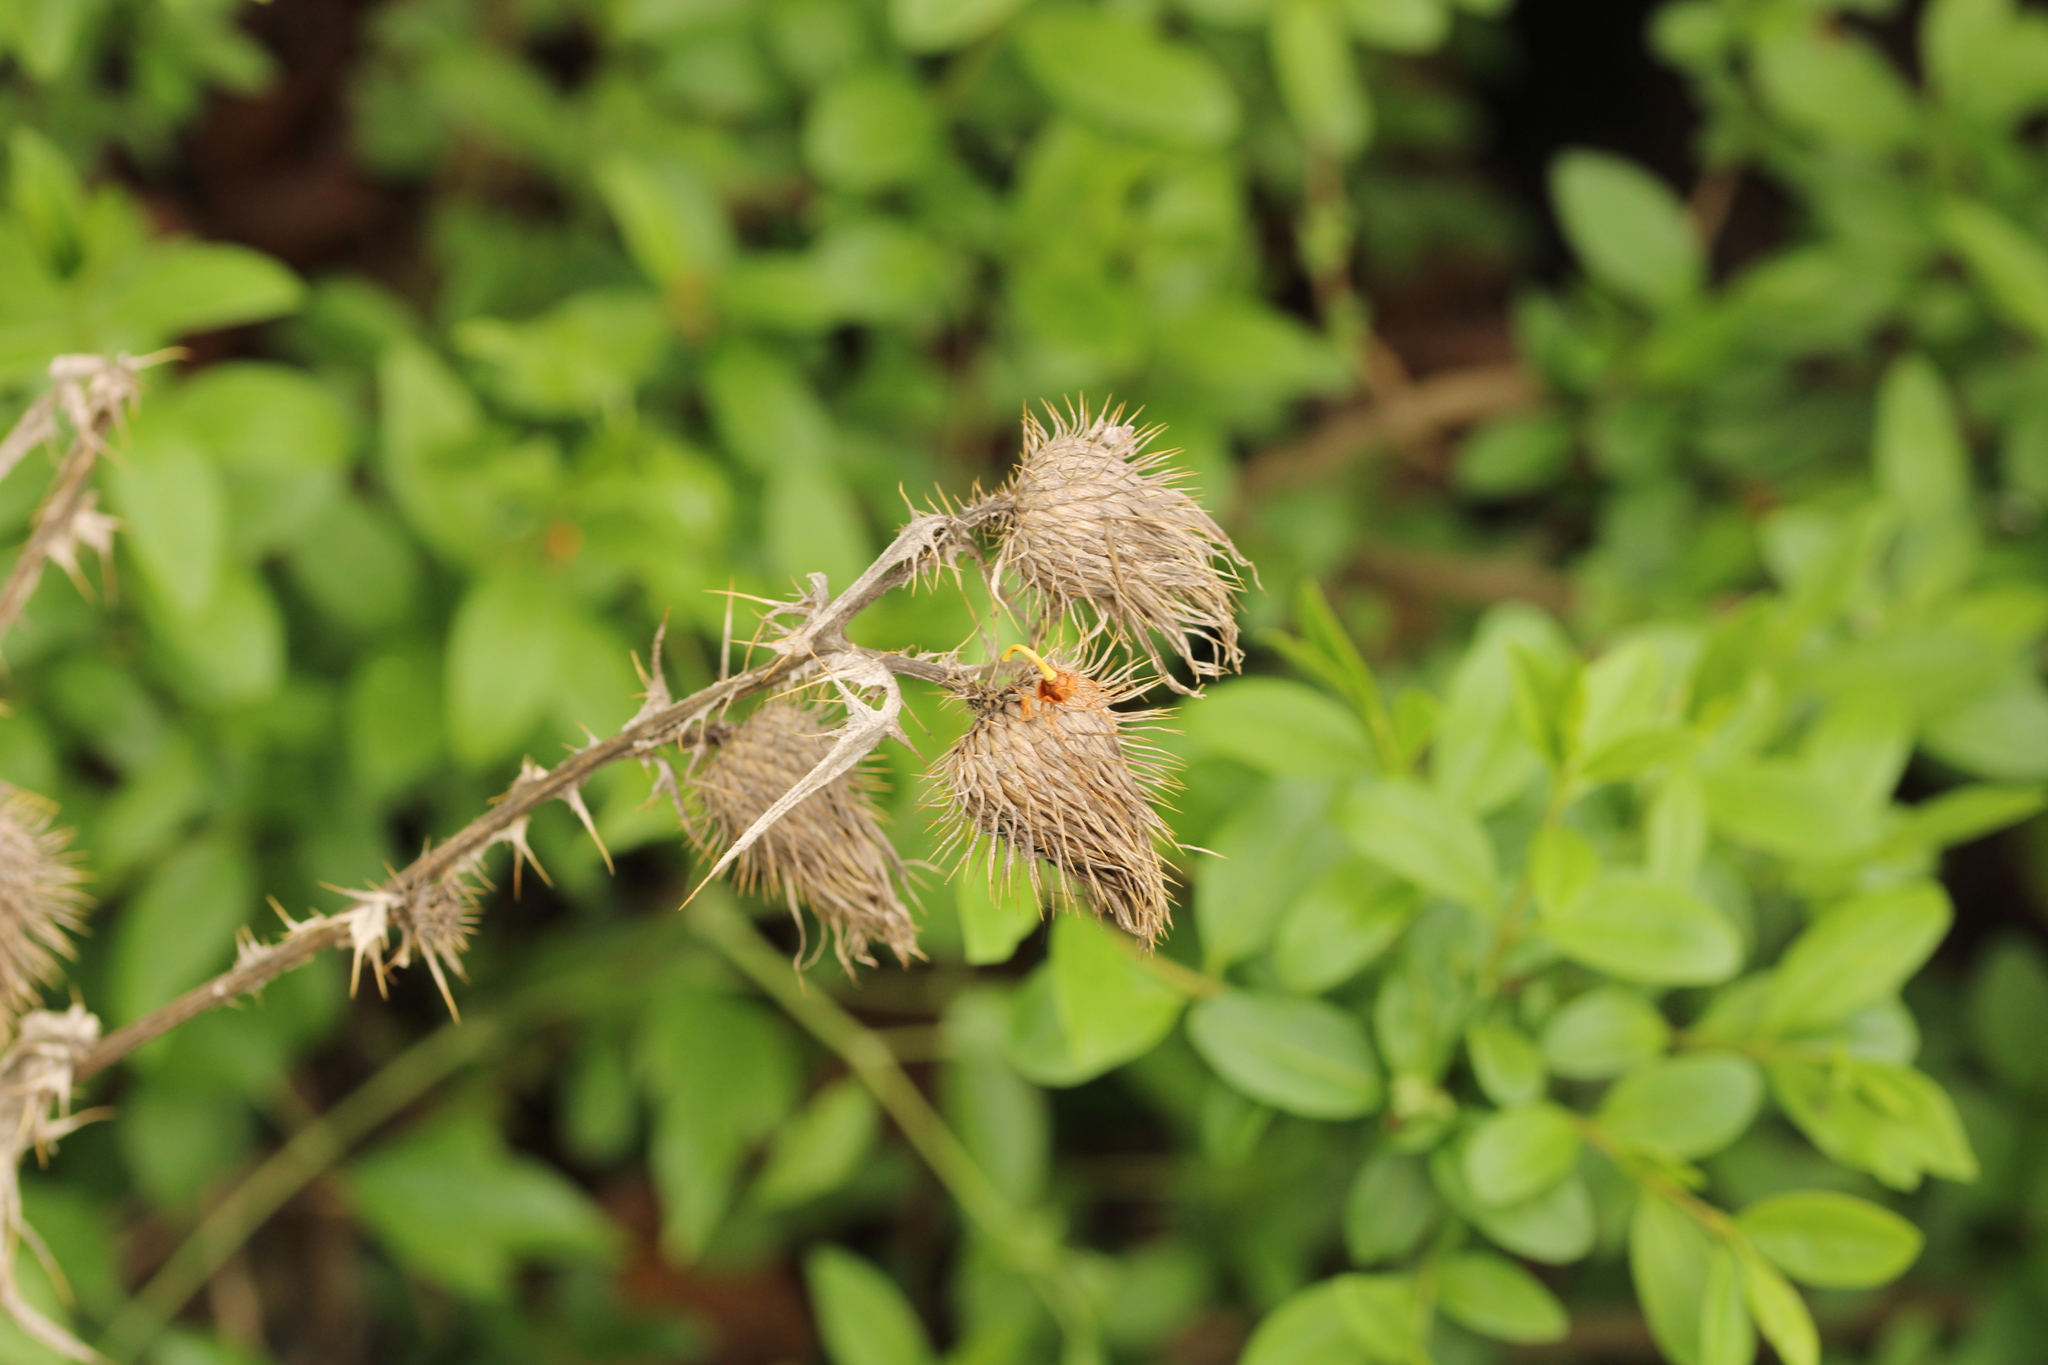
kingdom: Plantae
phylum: Tracheophyta
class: Magnoliopsida
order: Asterales
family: Asteraceae
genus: Cirsium
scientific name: Cirsium vulgare
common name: Bull thistle
